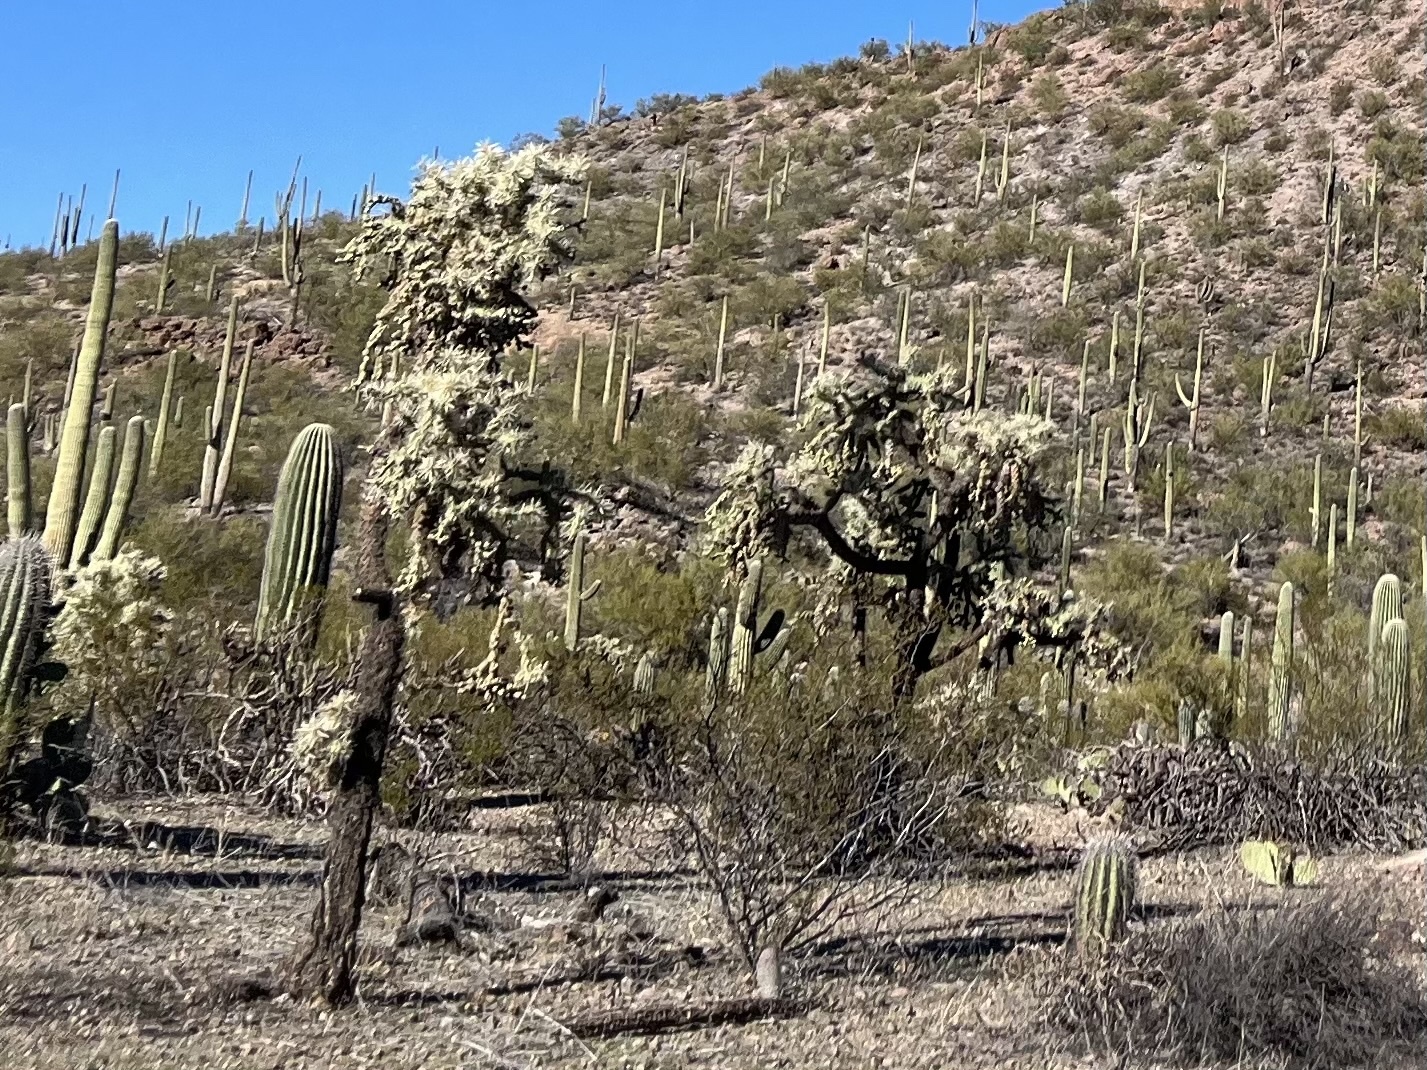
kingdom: Plantae
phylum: Tracheophyta
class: Magnoliopsida
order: Caryophyllales
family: Cactaceae
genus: Cylindropuntia
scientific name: Cylindropuntia fulgida
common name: Jumping cholla
